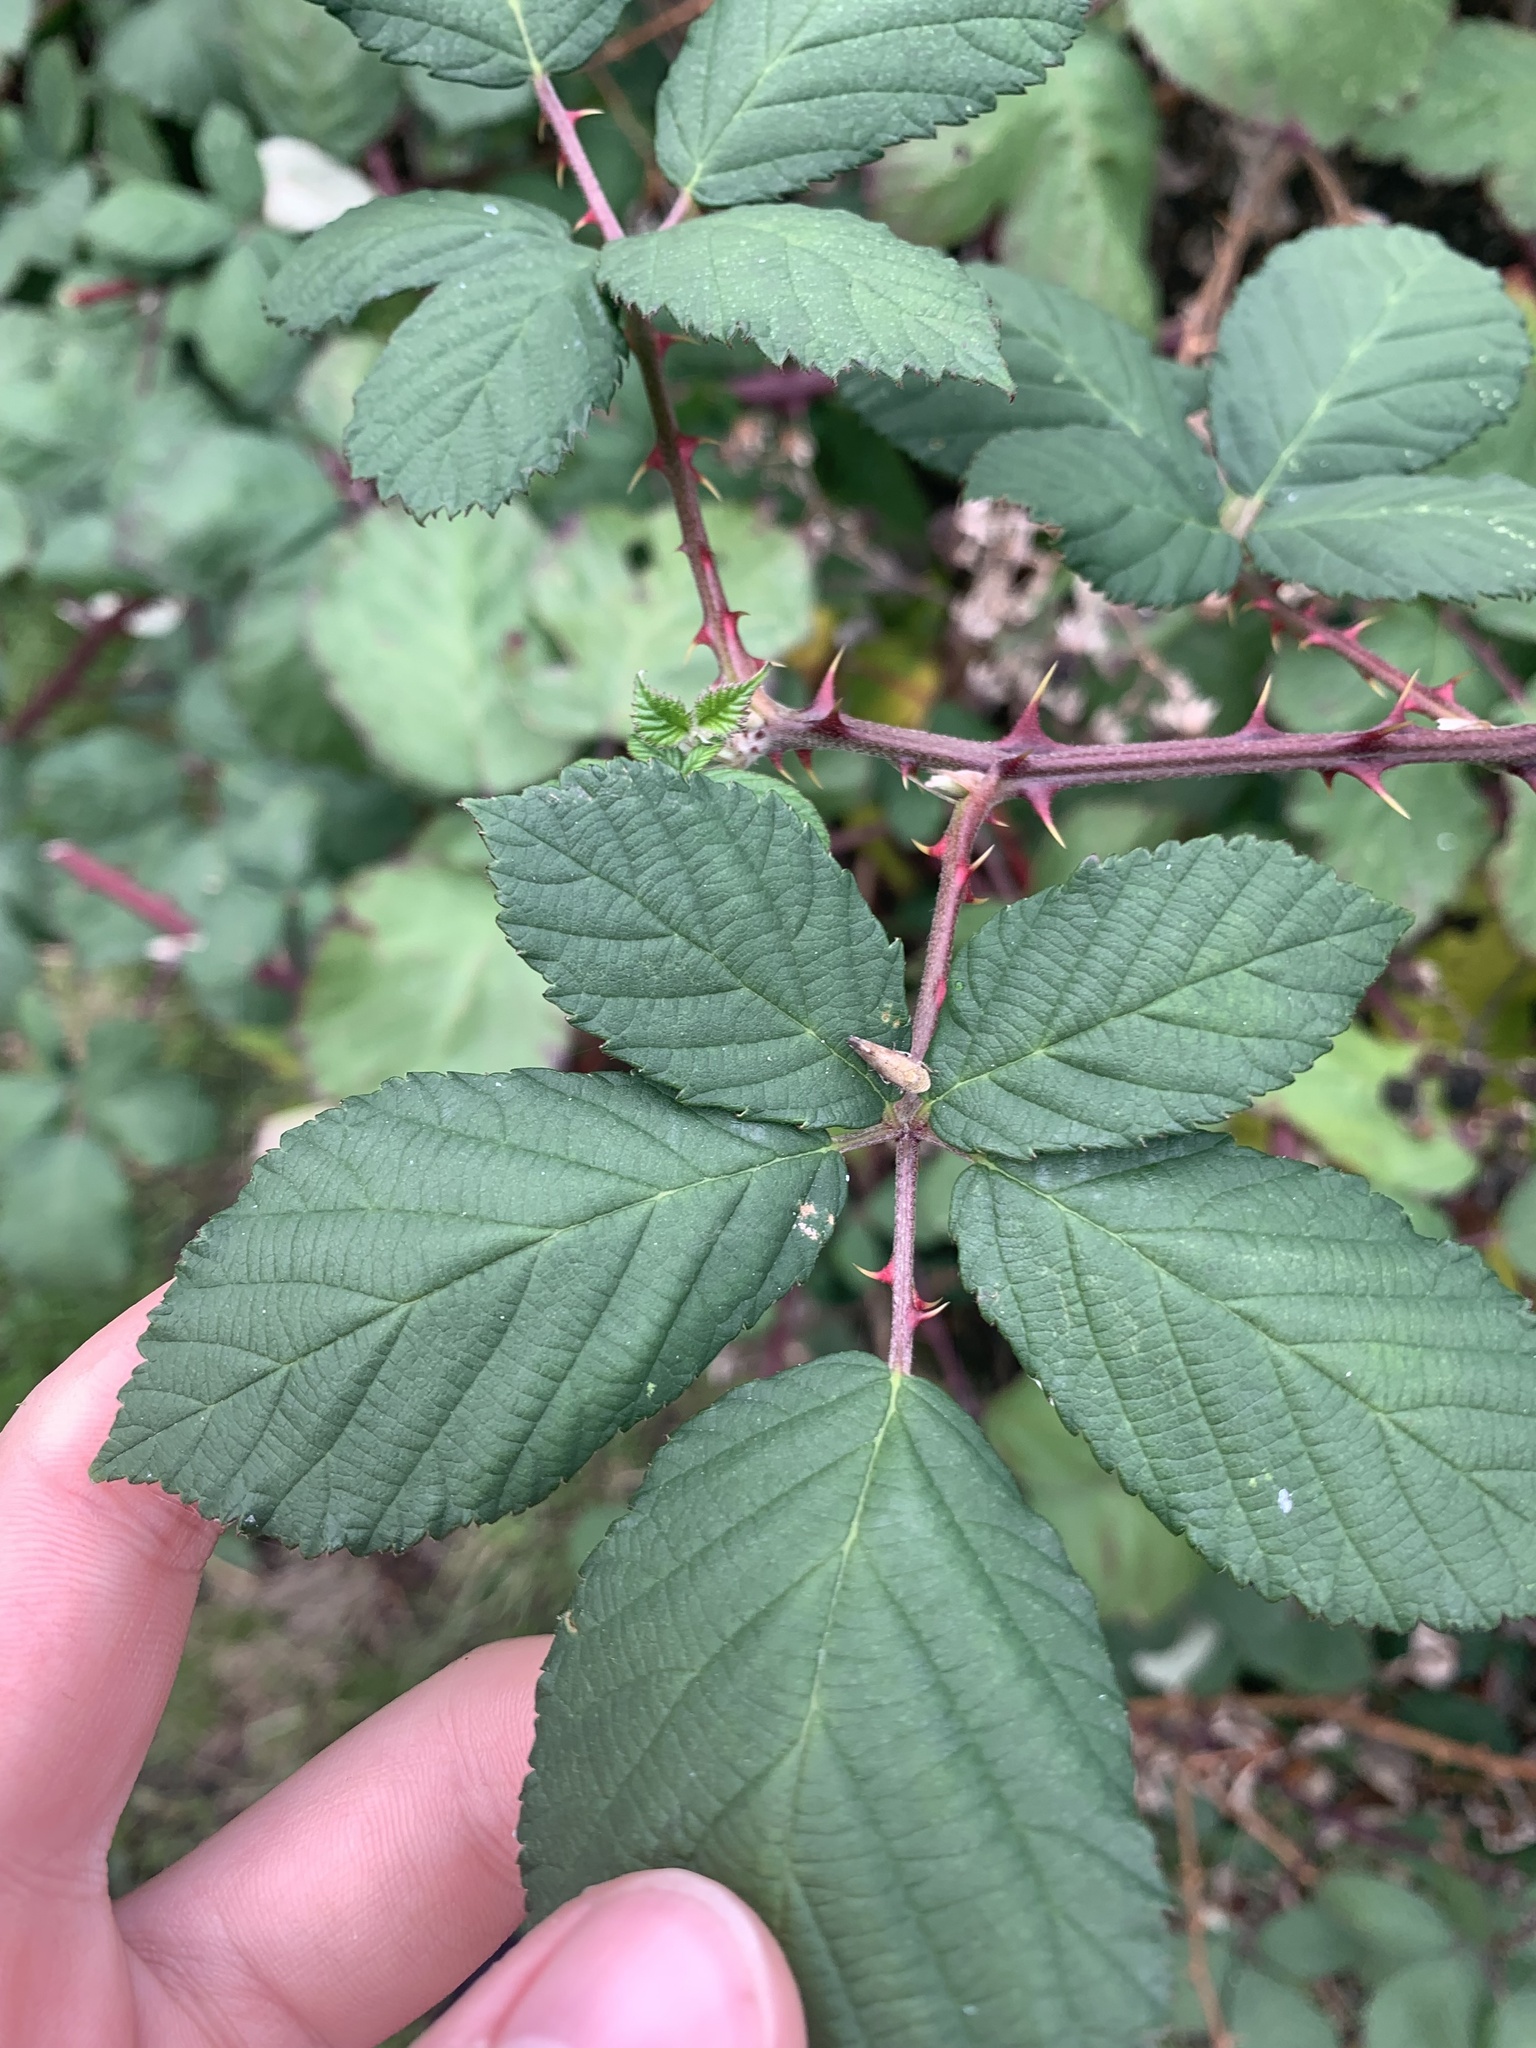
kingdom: Animalia
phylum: Arthropoda
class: Insecta
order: Hemiptera
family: Cicadellidae
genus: Fieberiella
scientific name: Fieberiella florii
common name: Flor’s leafhopper
